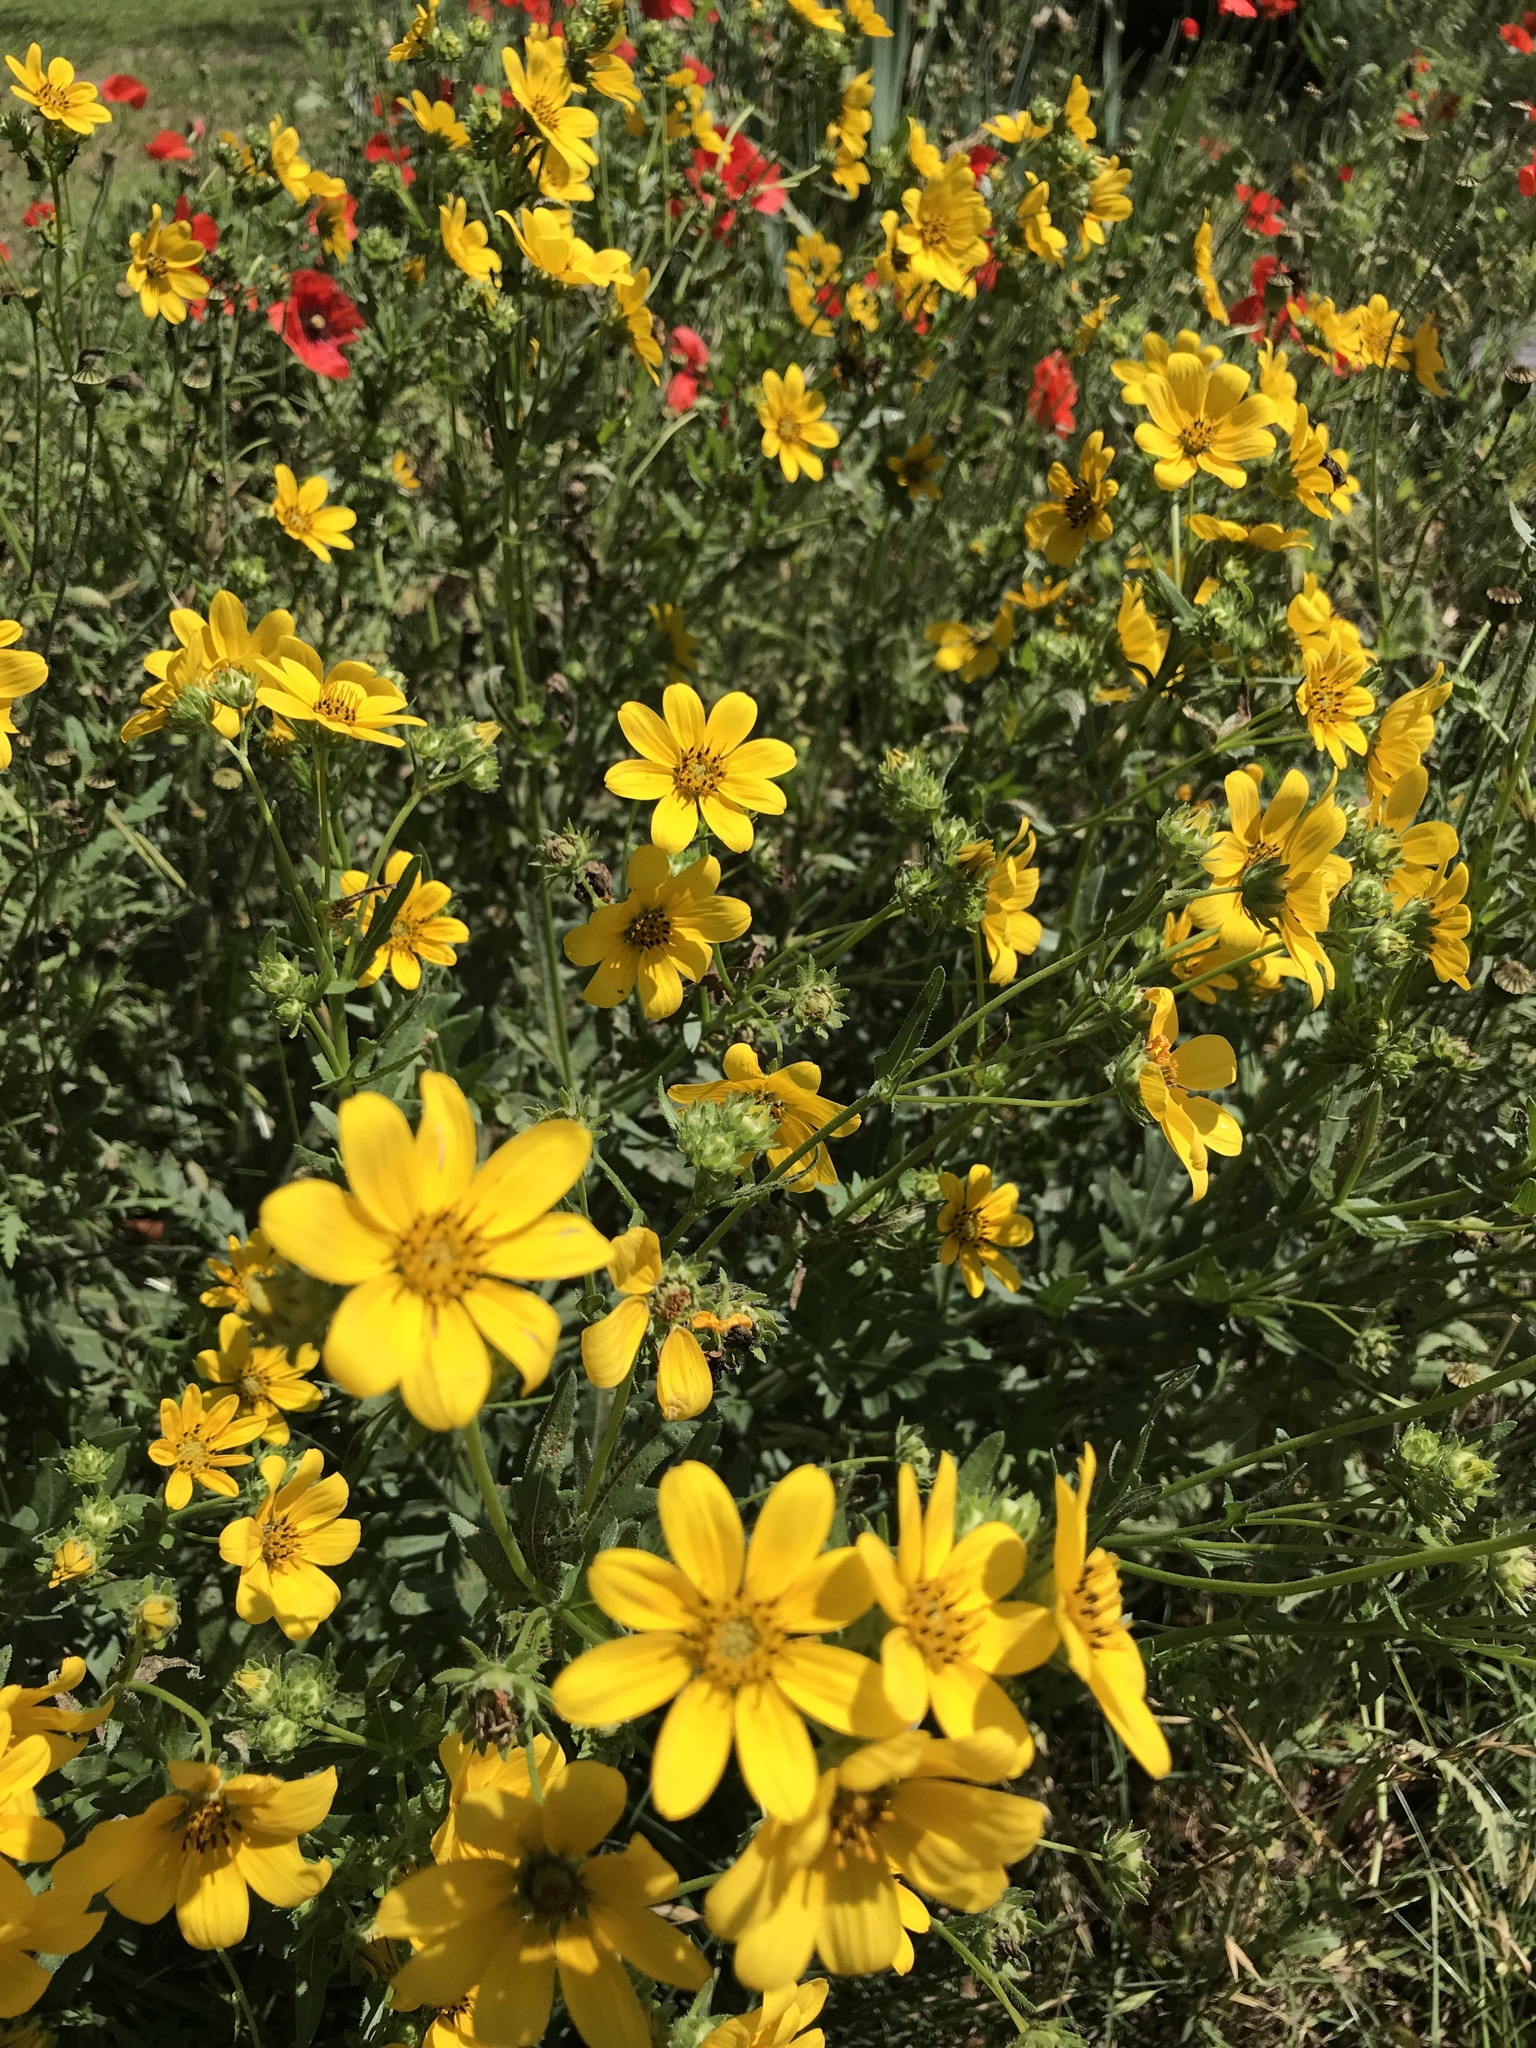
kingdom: Plantae
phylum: Tracheophyta
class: Magnoliopsida
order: Asterales
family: Asteraceae
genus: Engelmannia
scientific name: Engelmannia peristenia
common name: Engelmann's daisy
